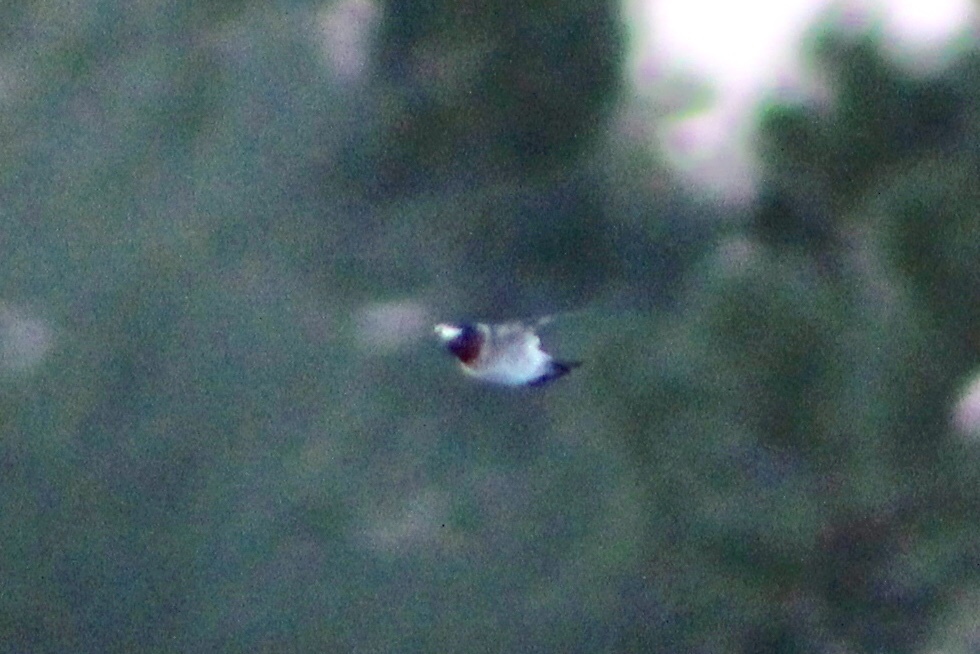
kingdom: Animalia
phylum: Chordata
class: Aves
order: Passeriformes
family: Hirundinidae
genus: Petrochelidon
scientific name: Petrochelidon pyrrhonota
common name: American cliff swallow
